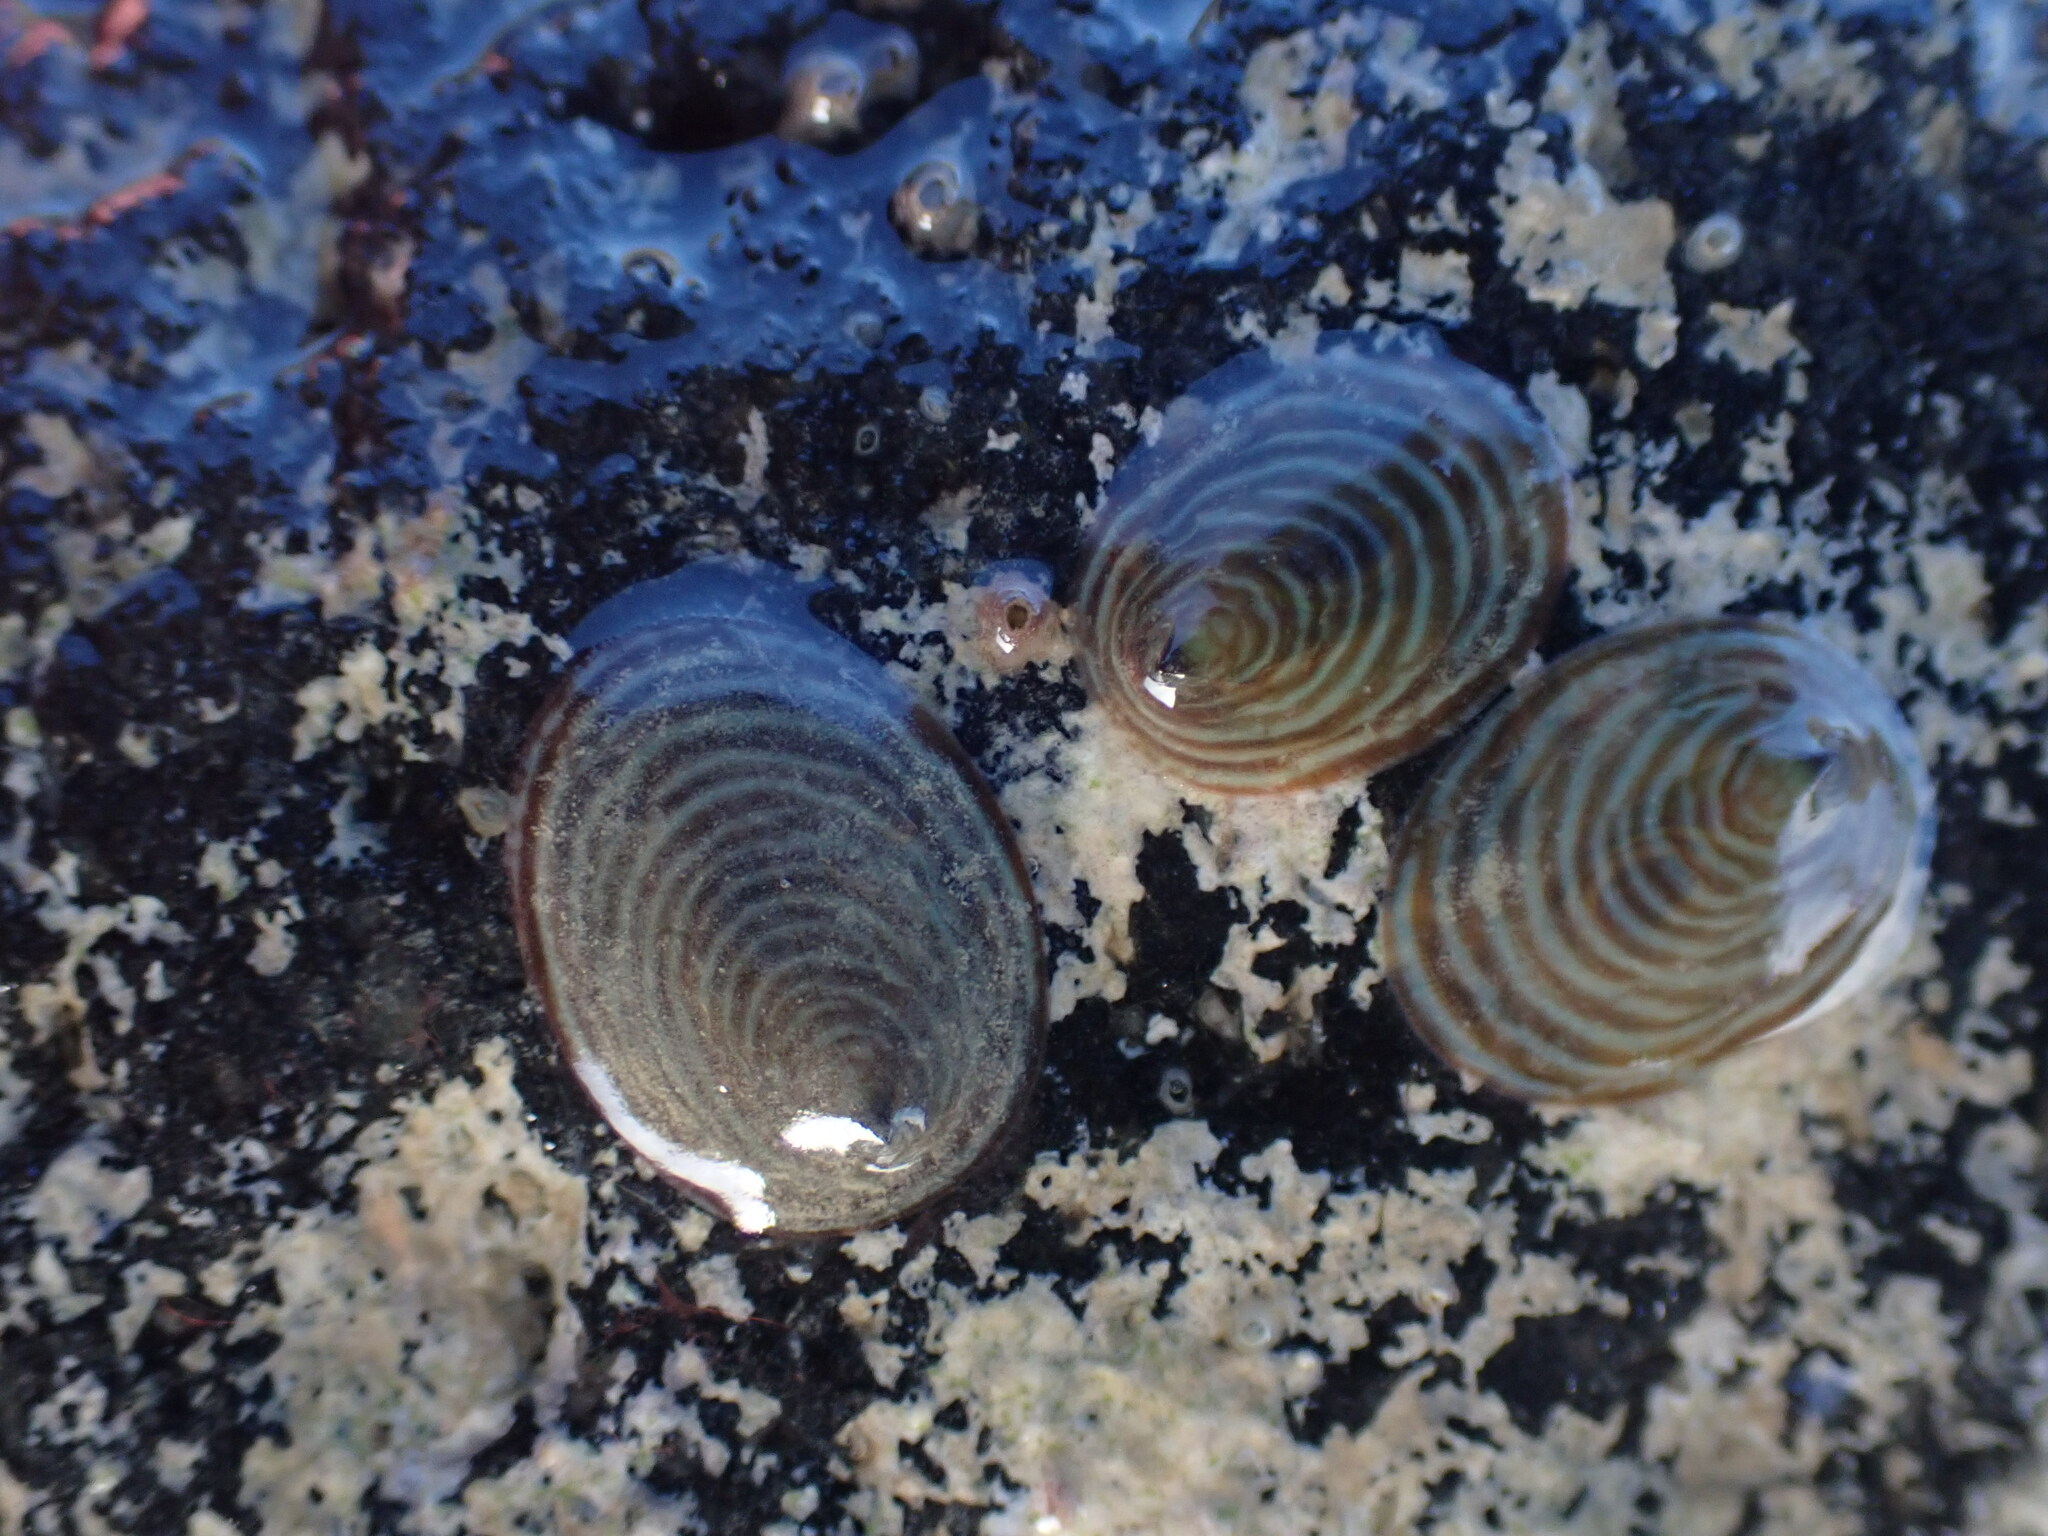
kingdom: Animalia
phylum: Mollusca
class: Gastropoda
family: Lottiidae
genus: Atalacmea
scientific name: Atalacmea fragilis
